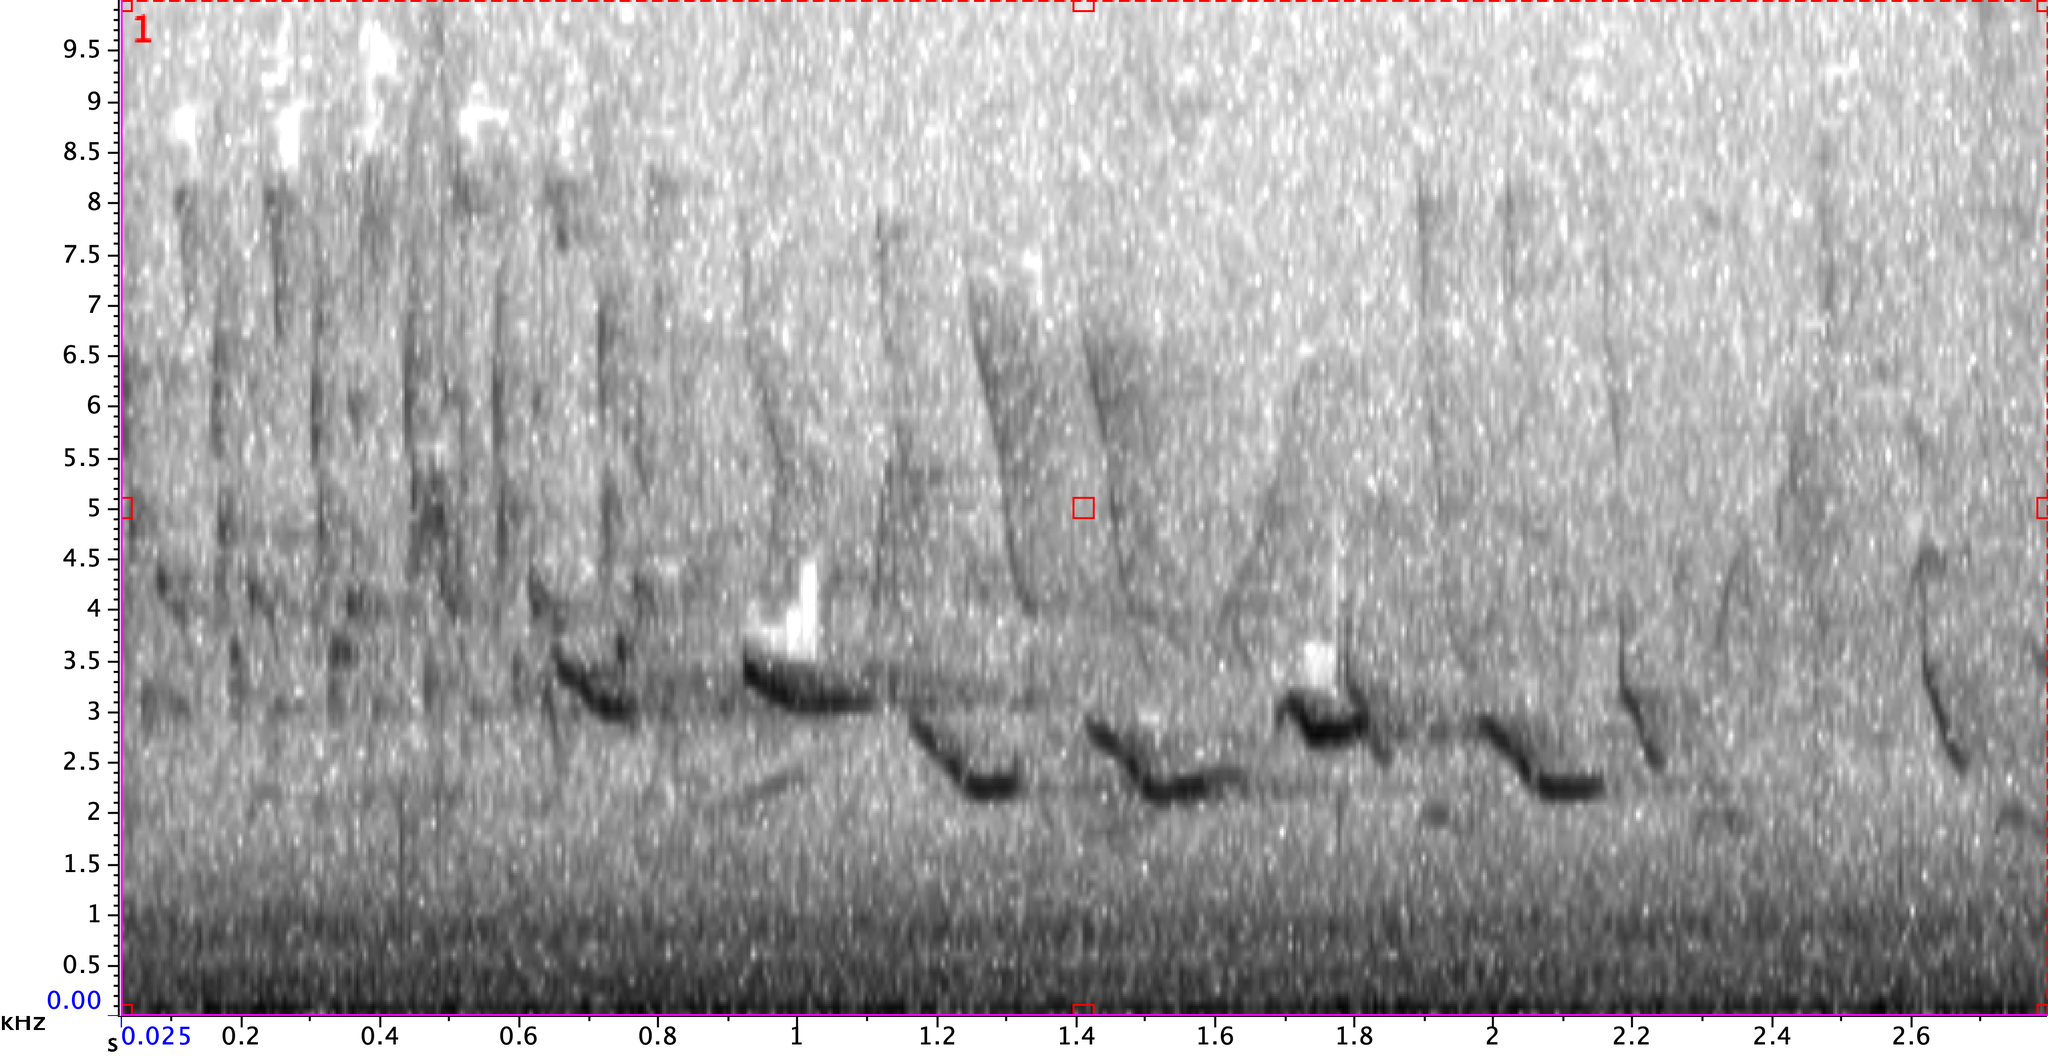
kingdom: Animalia
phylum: Chordata
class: Aves
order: Passeriformes
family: Icteridae
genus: Icterus
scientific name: Icterus galbula
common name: Baltimore oriole
